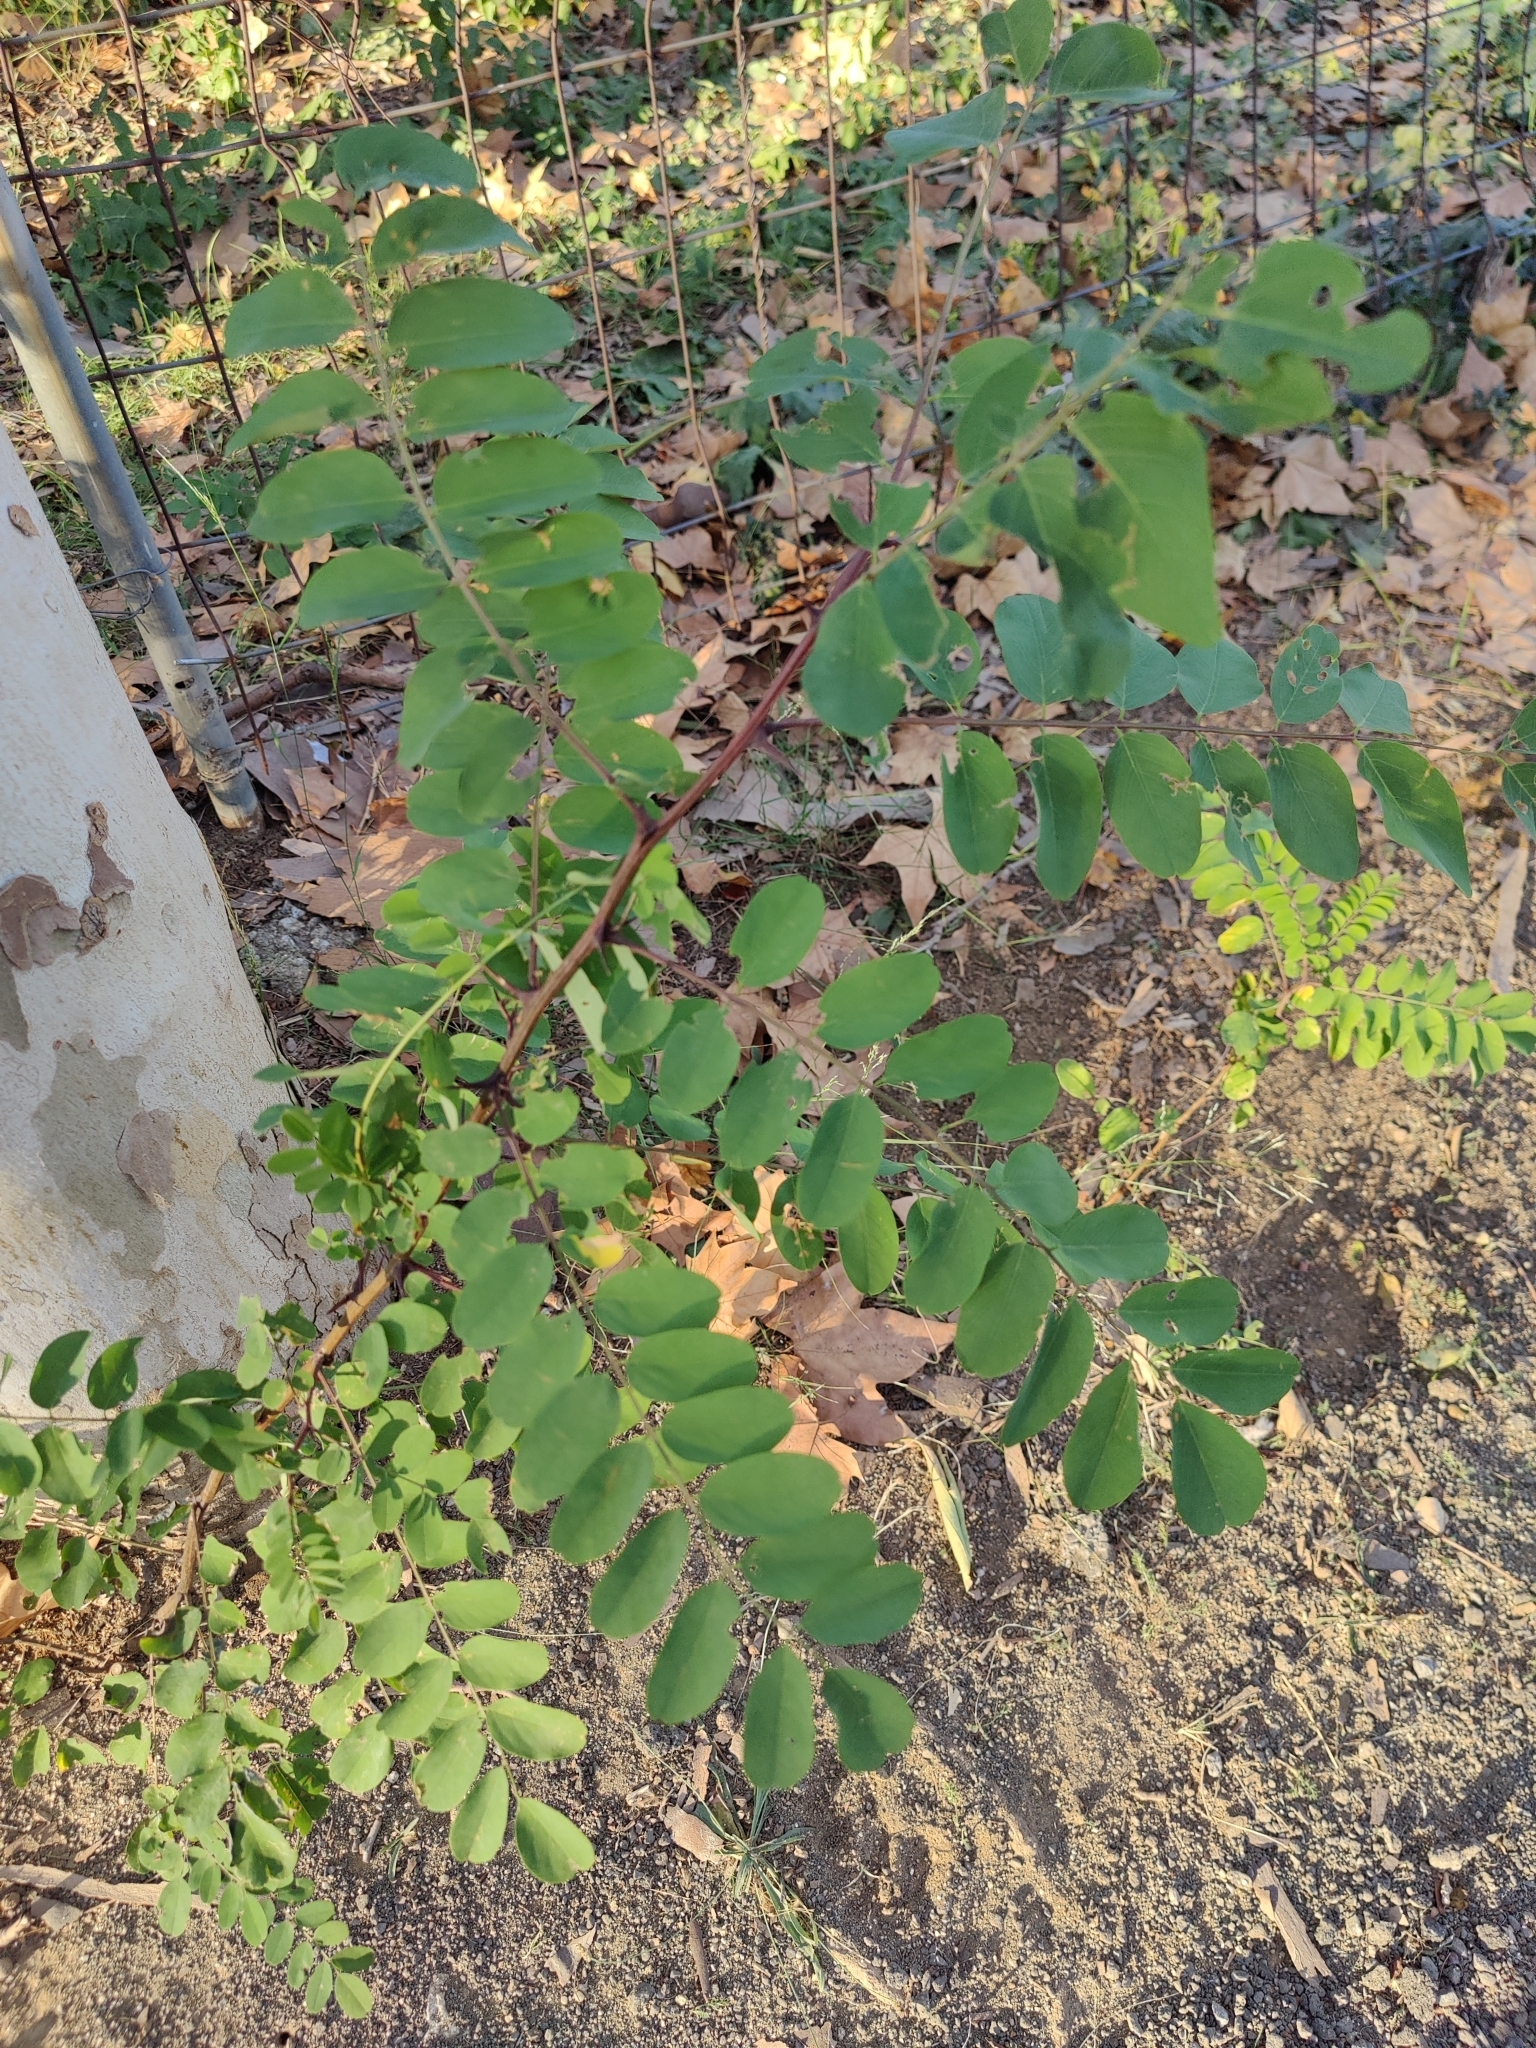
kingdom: Plantae
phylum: Tracheophyta
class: Magnoliopsida
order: Fabales
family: Fabaceae
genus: Robinia
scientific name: Robinia pseudoacacia
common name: Black locust
